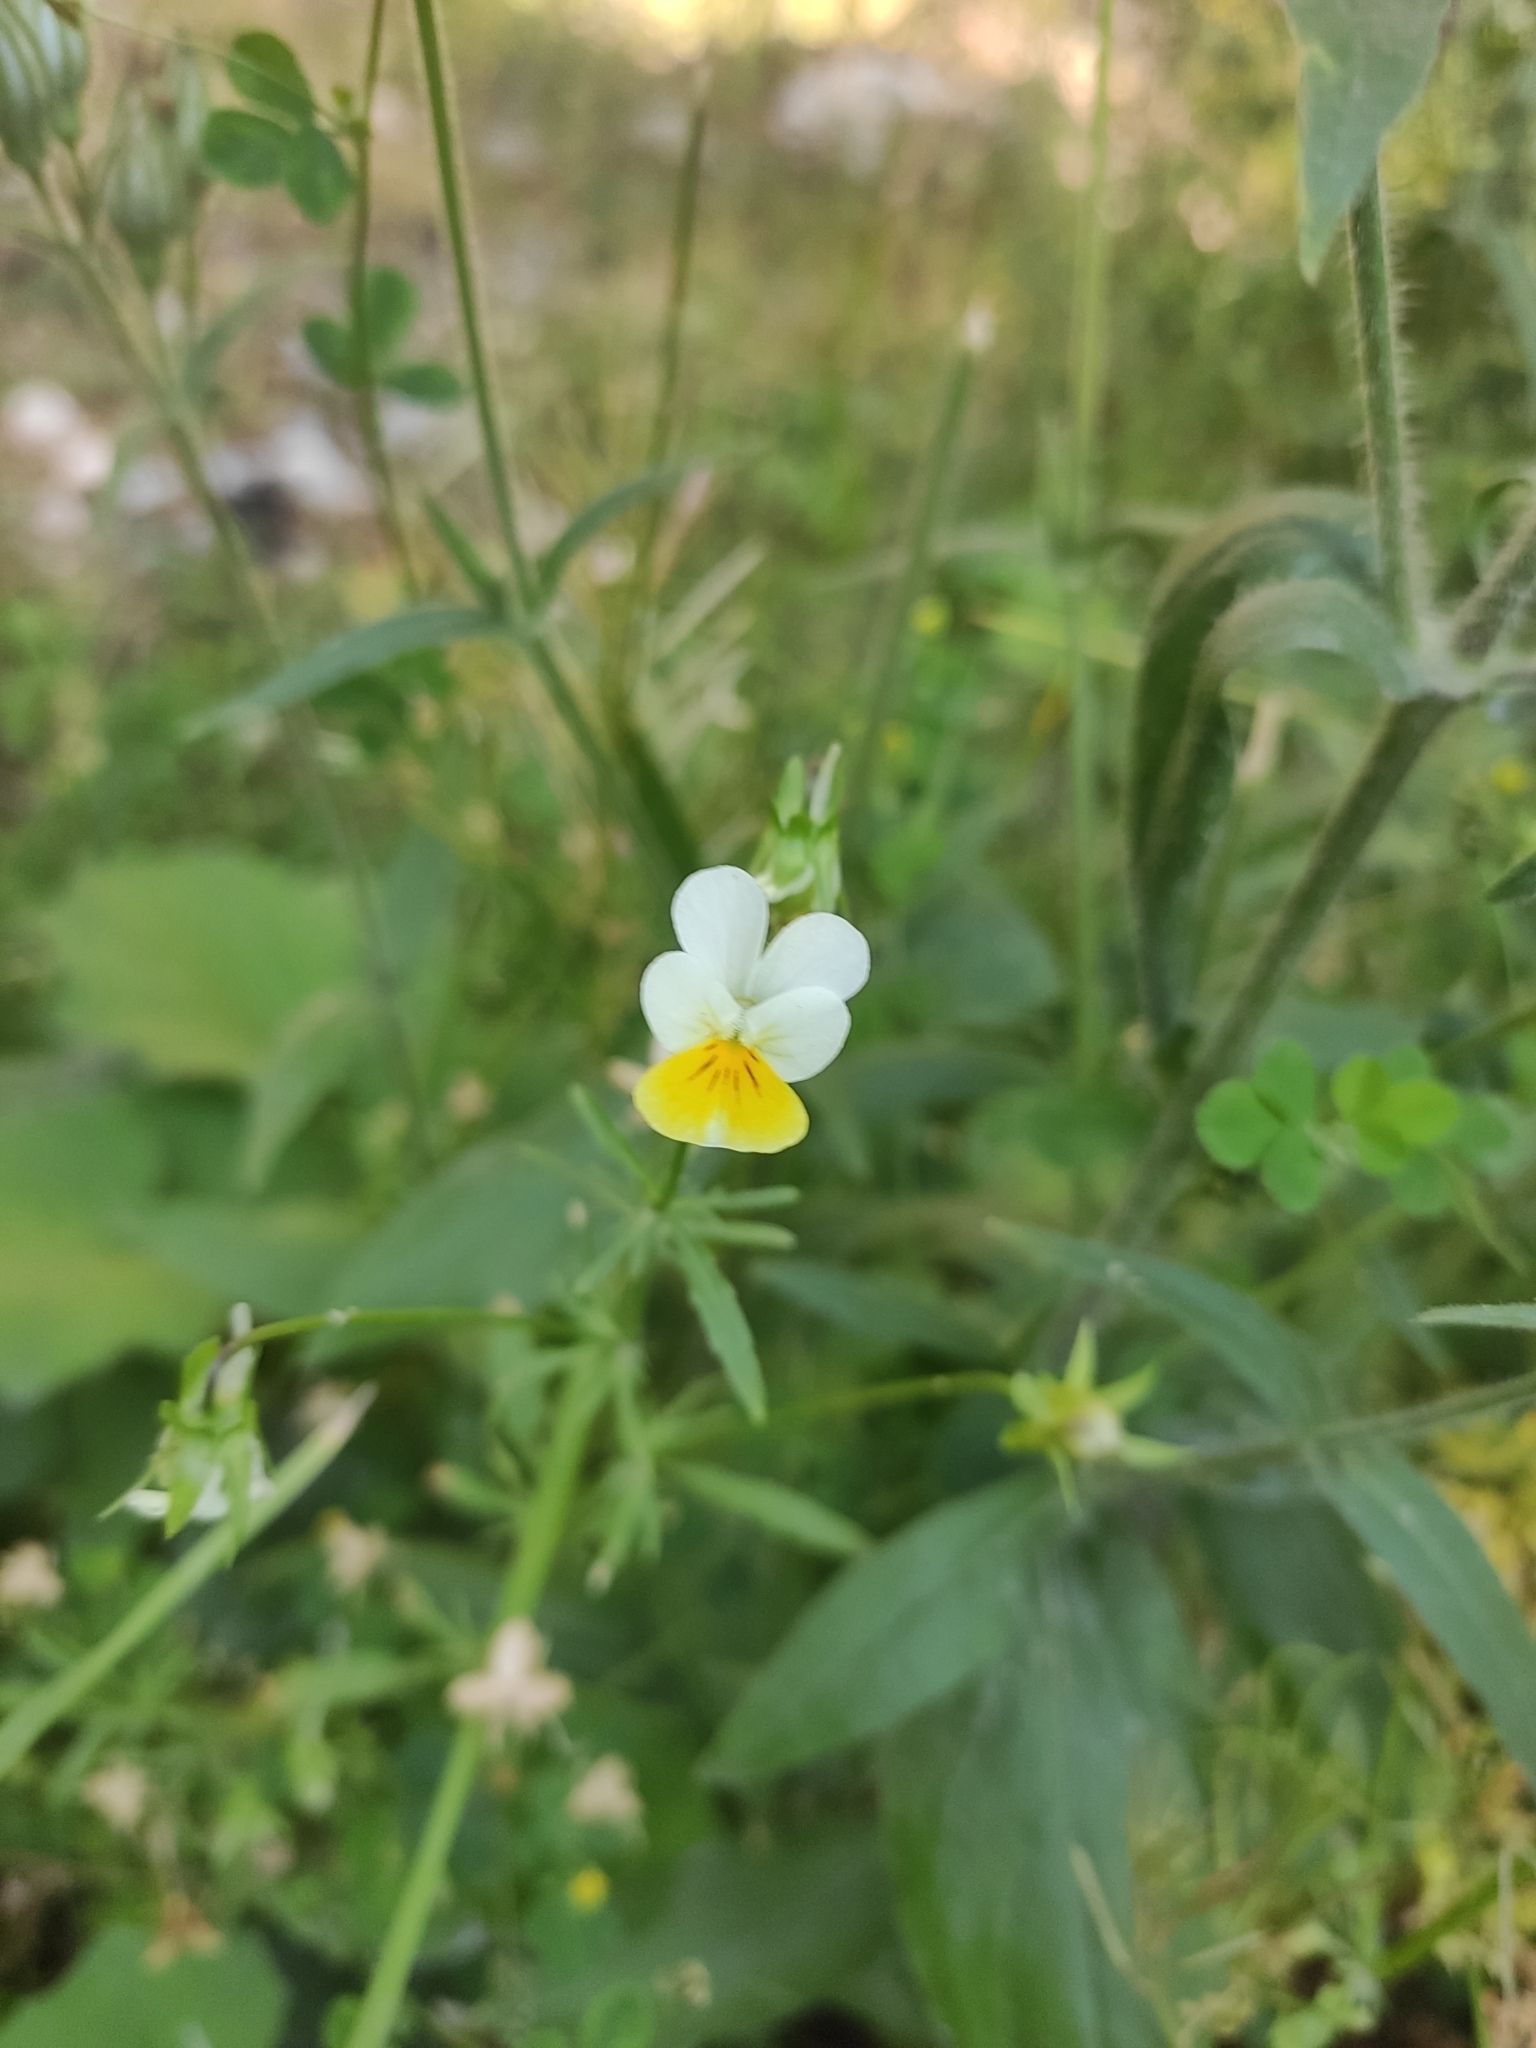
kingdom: Plantae
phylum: Tracheophyta
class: Magnoliopsida
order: Malpighiales
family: Violaceae
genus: Viola
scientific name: Viola arvensis
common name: Field pansy
